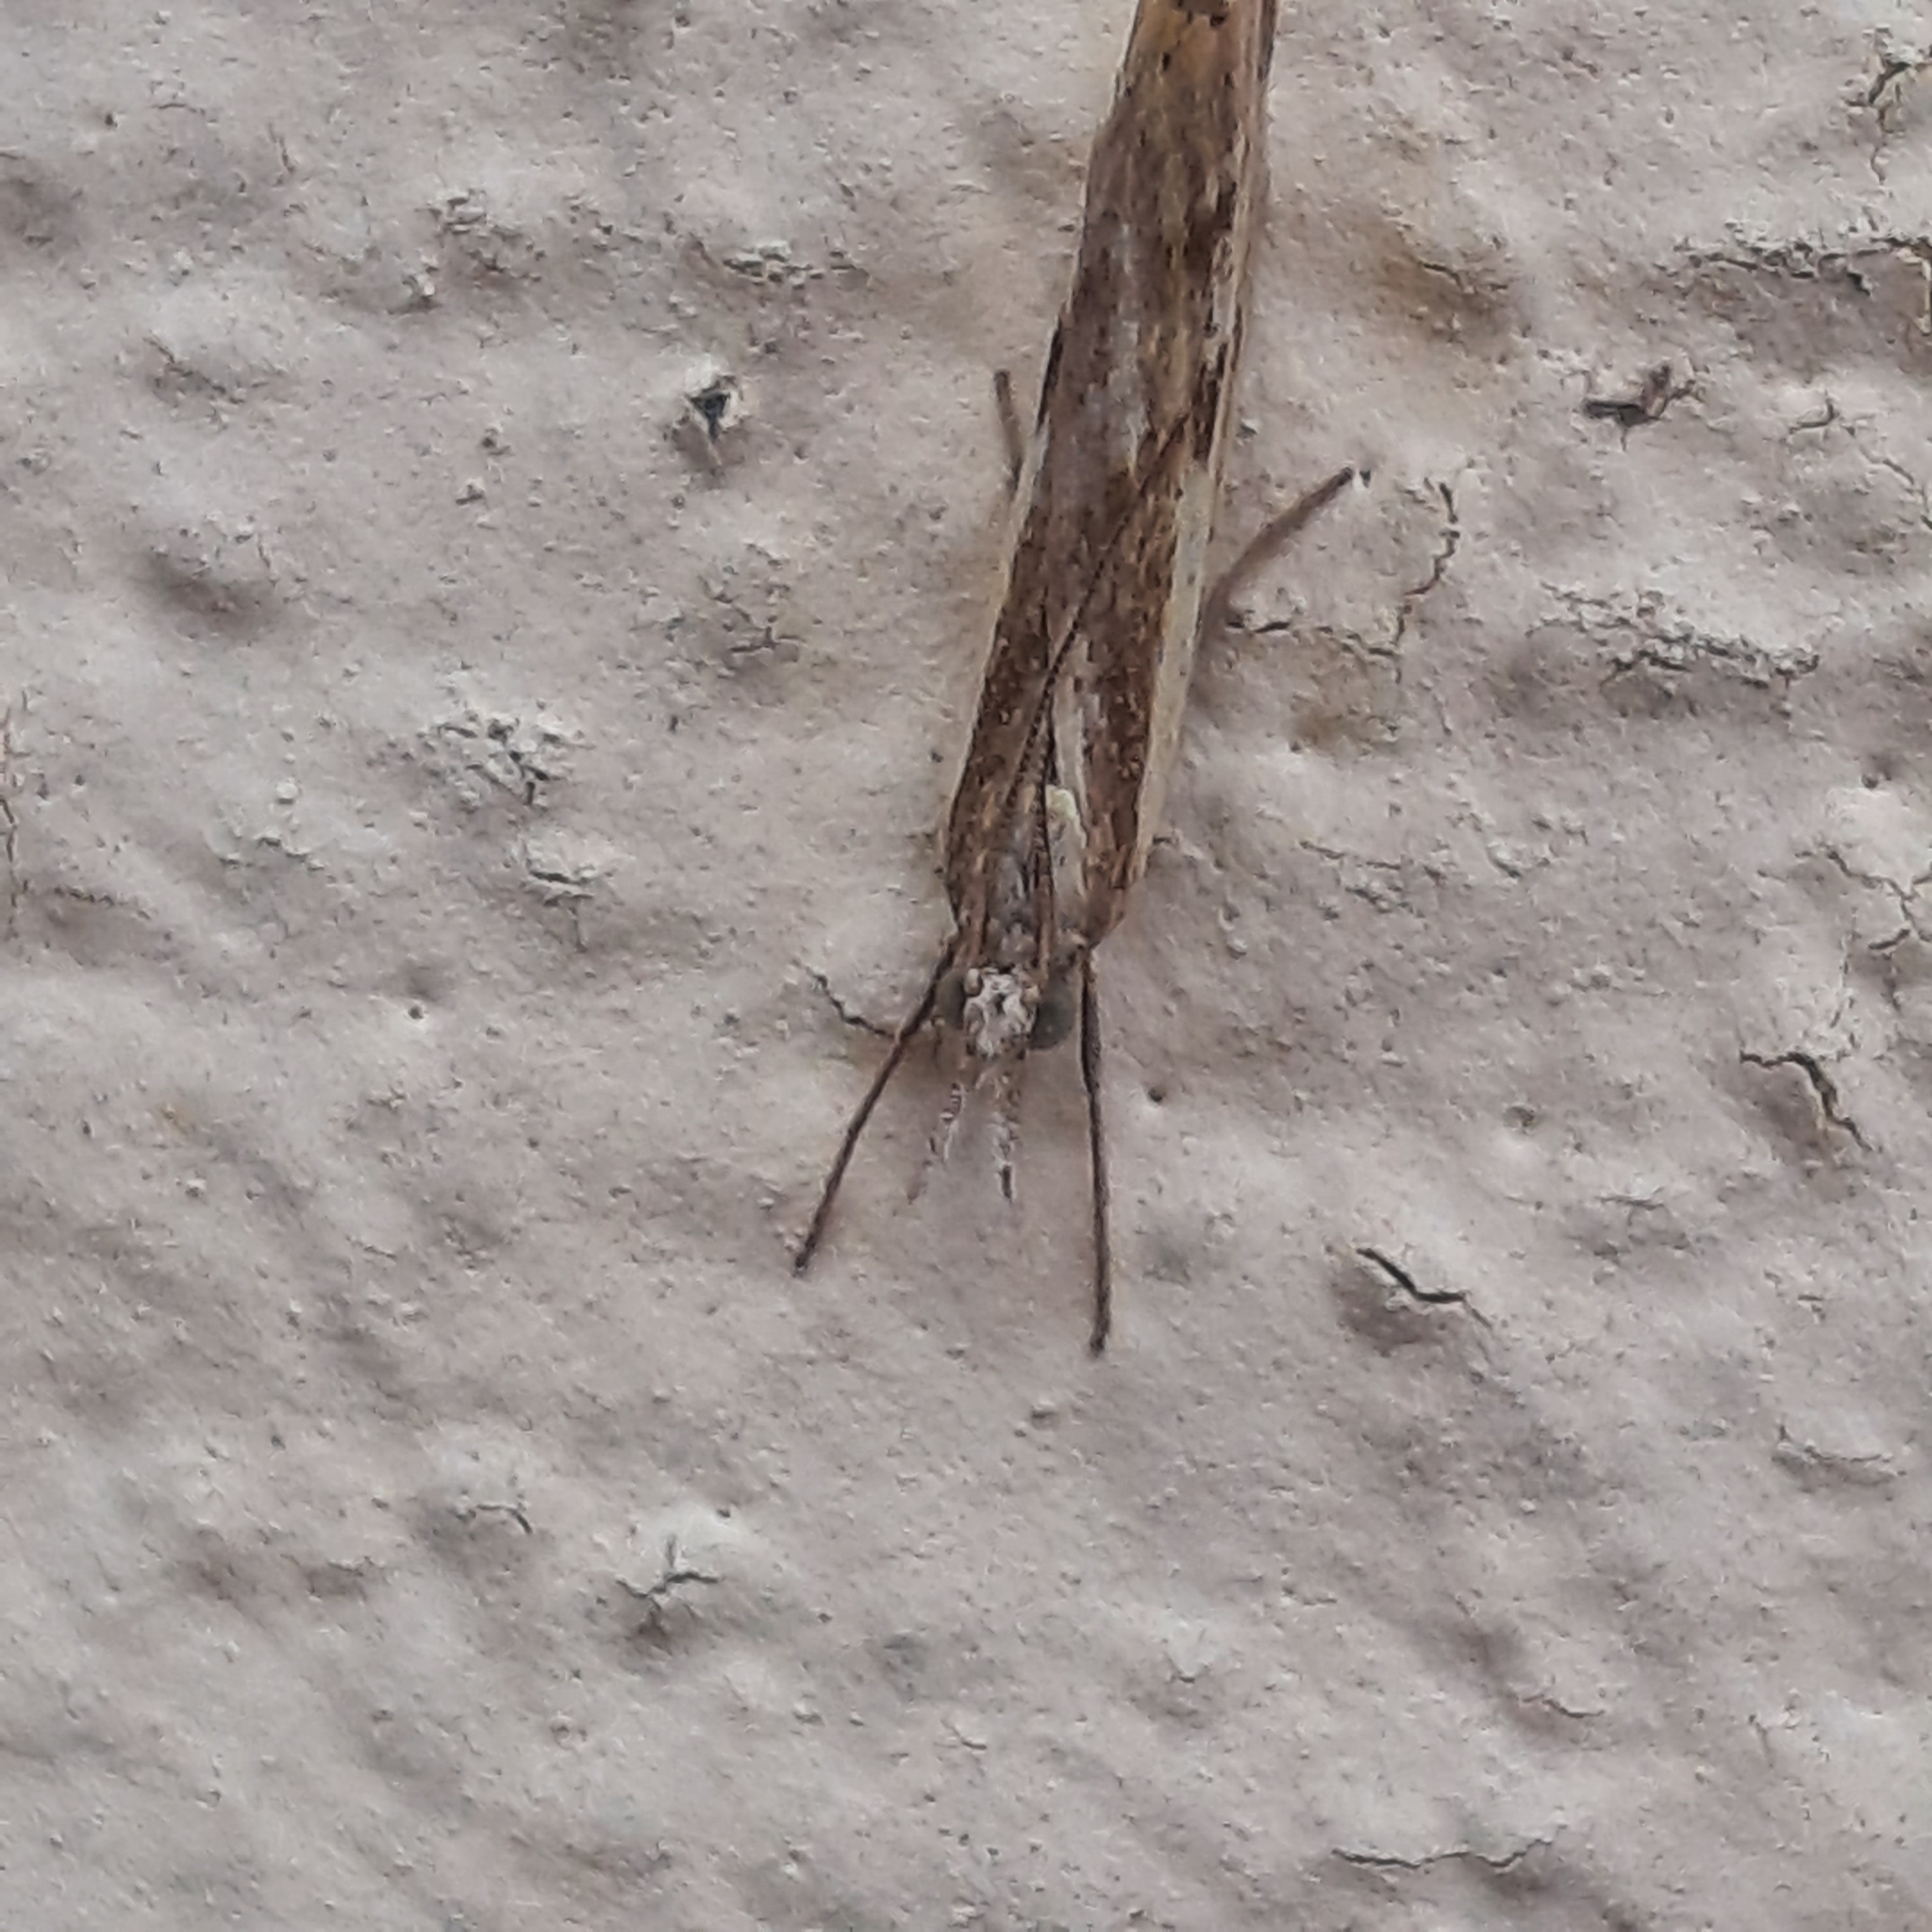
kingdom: Animalia
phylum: Arthropoda
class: Insecta
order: Lepidoptera
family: Crambidae
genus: Agriphila
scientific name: Agriphila inquinatella
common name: Barred grass-veneer
